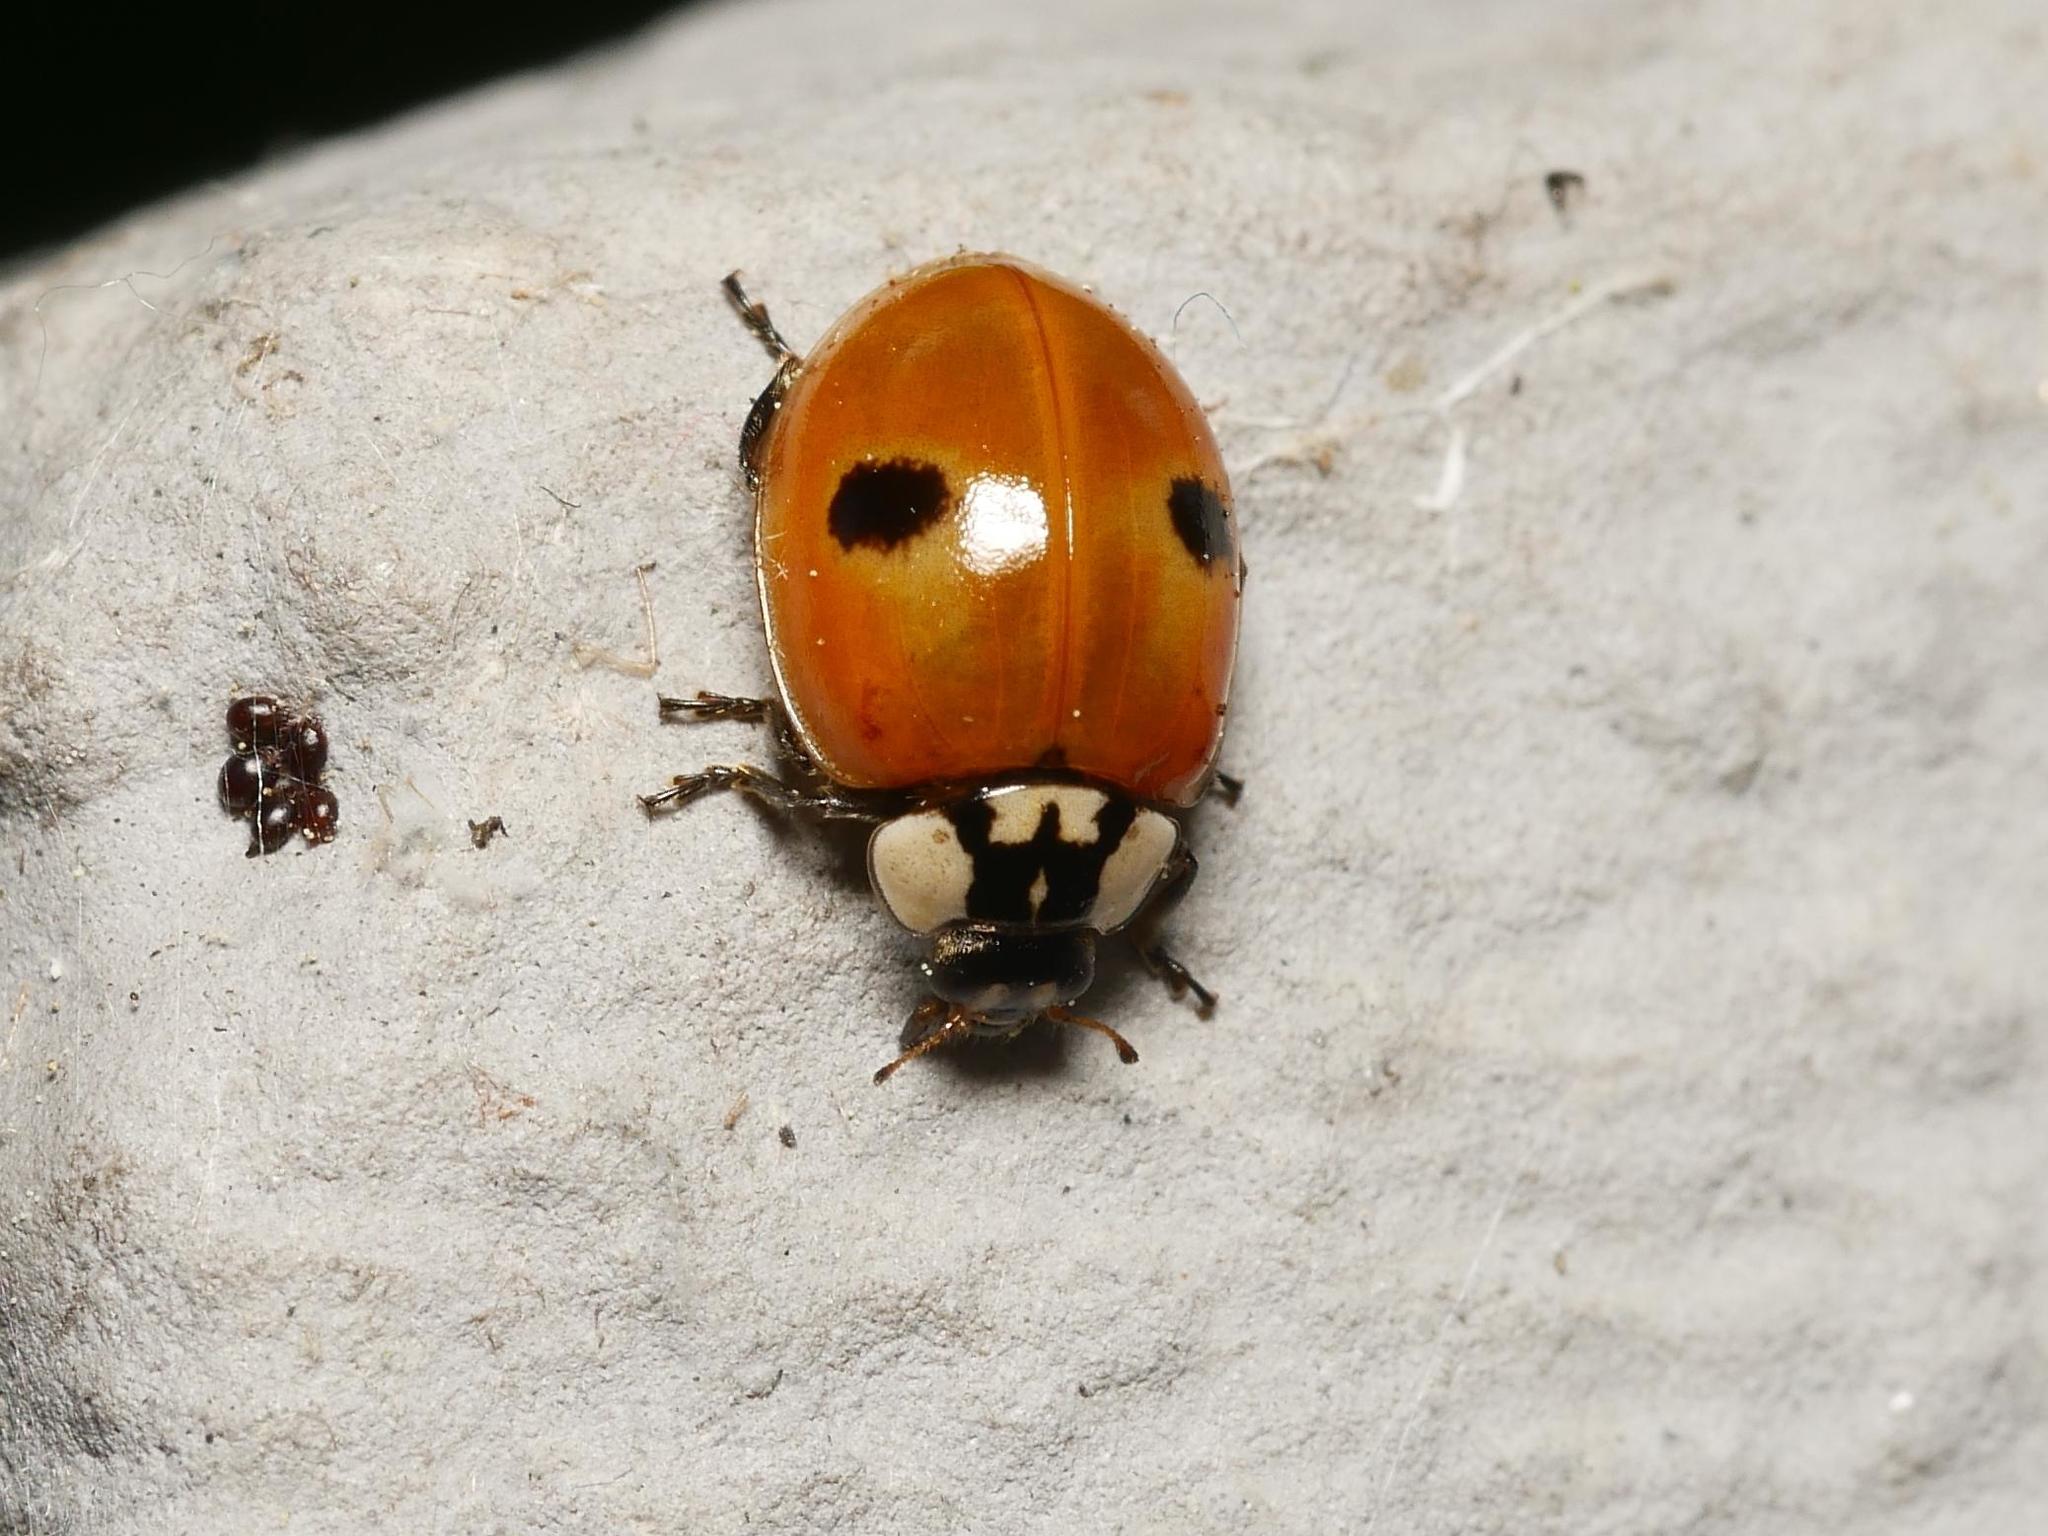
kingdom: Animalia
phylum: Arthropoda
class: Insecta
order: Coleoptera
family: Coccinellidae
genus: Adalia
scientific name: Adalia bipunctata
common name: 2-spot ladybird
